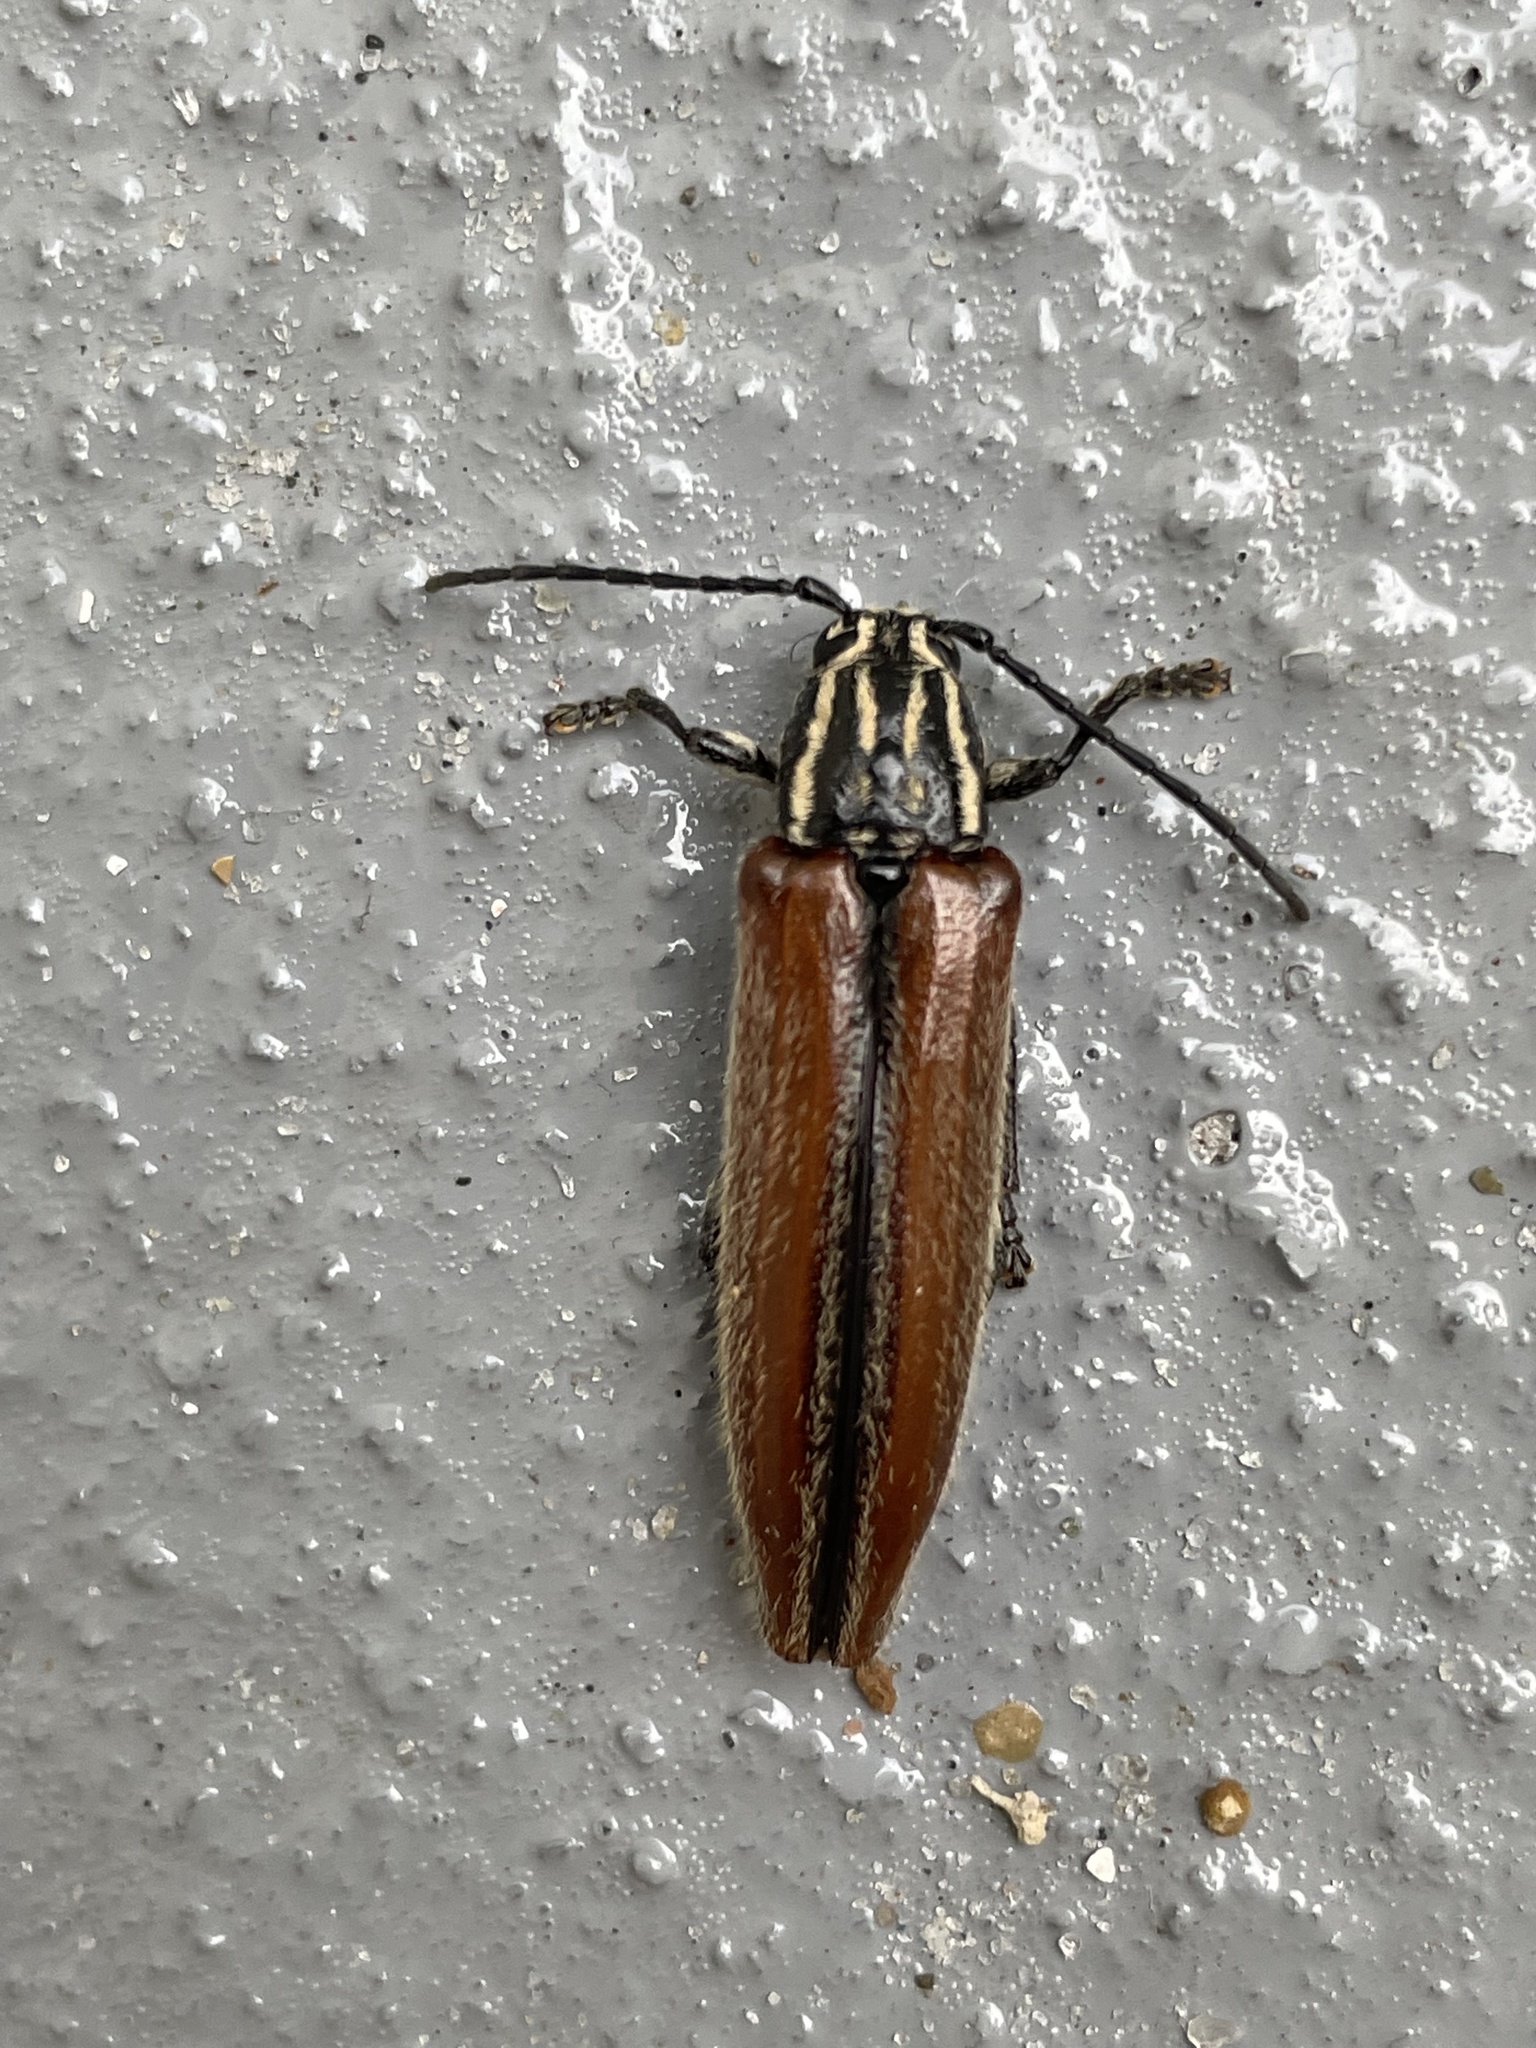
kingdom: Animalia
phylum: Arthropoda
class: Insecta
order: Coleoptera
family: Cerambycidae
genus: Osmopleura
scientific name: Osmopleura chamaeropis
